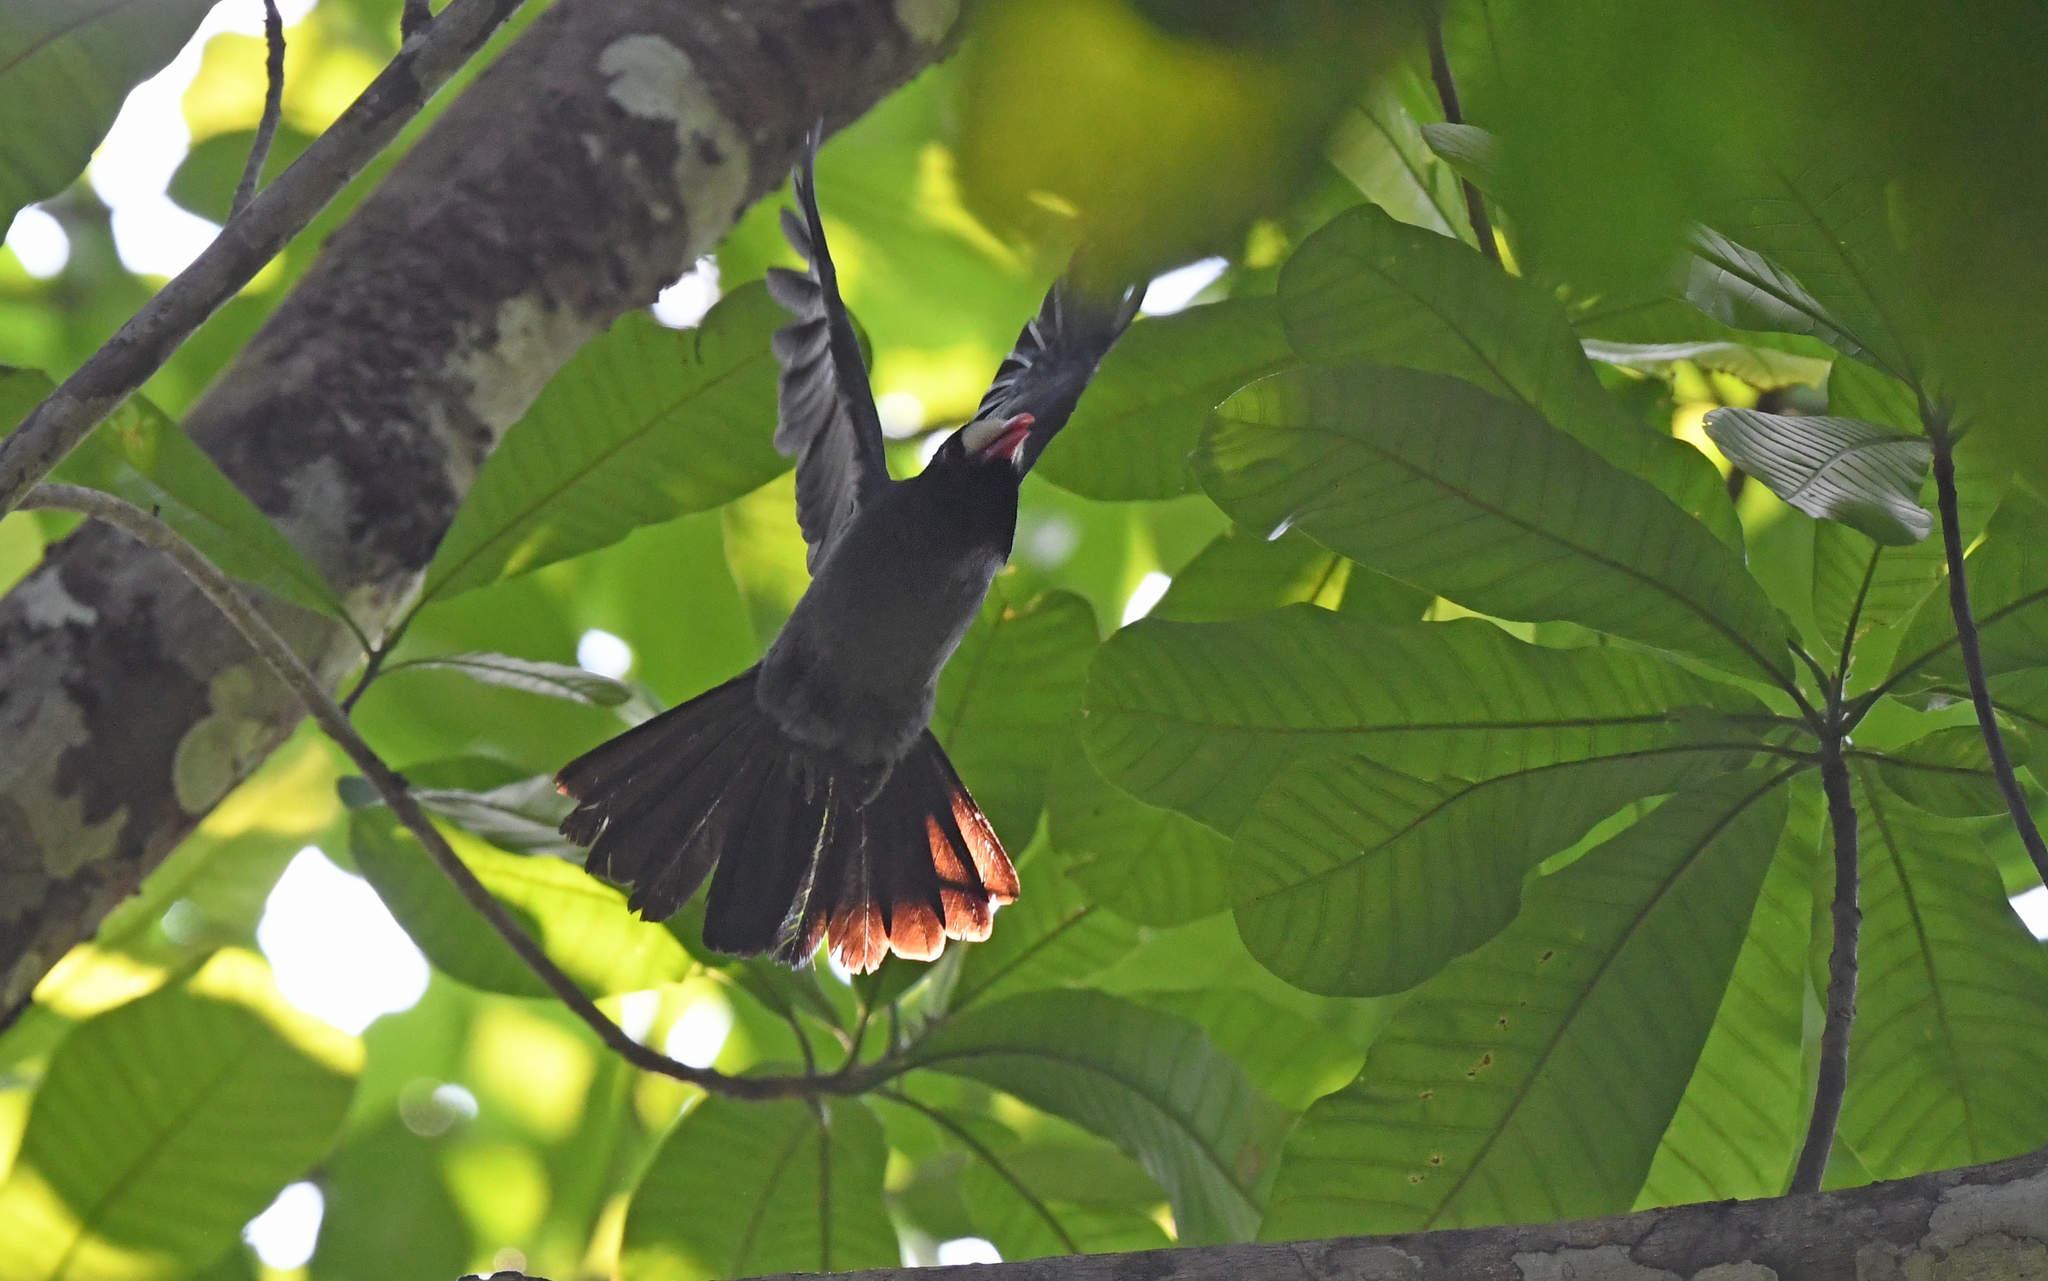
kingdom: Animalia
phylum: Chordata
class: Aves
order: Piciformes
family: Bucconidae
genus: Monasa
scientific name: Monasa morphoeus
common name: White-fronted nunbird
